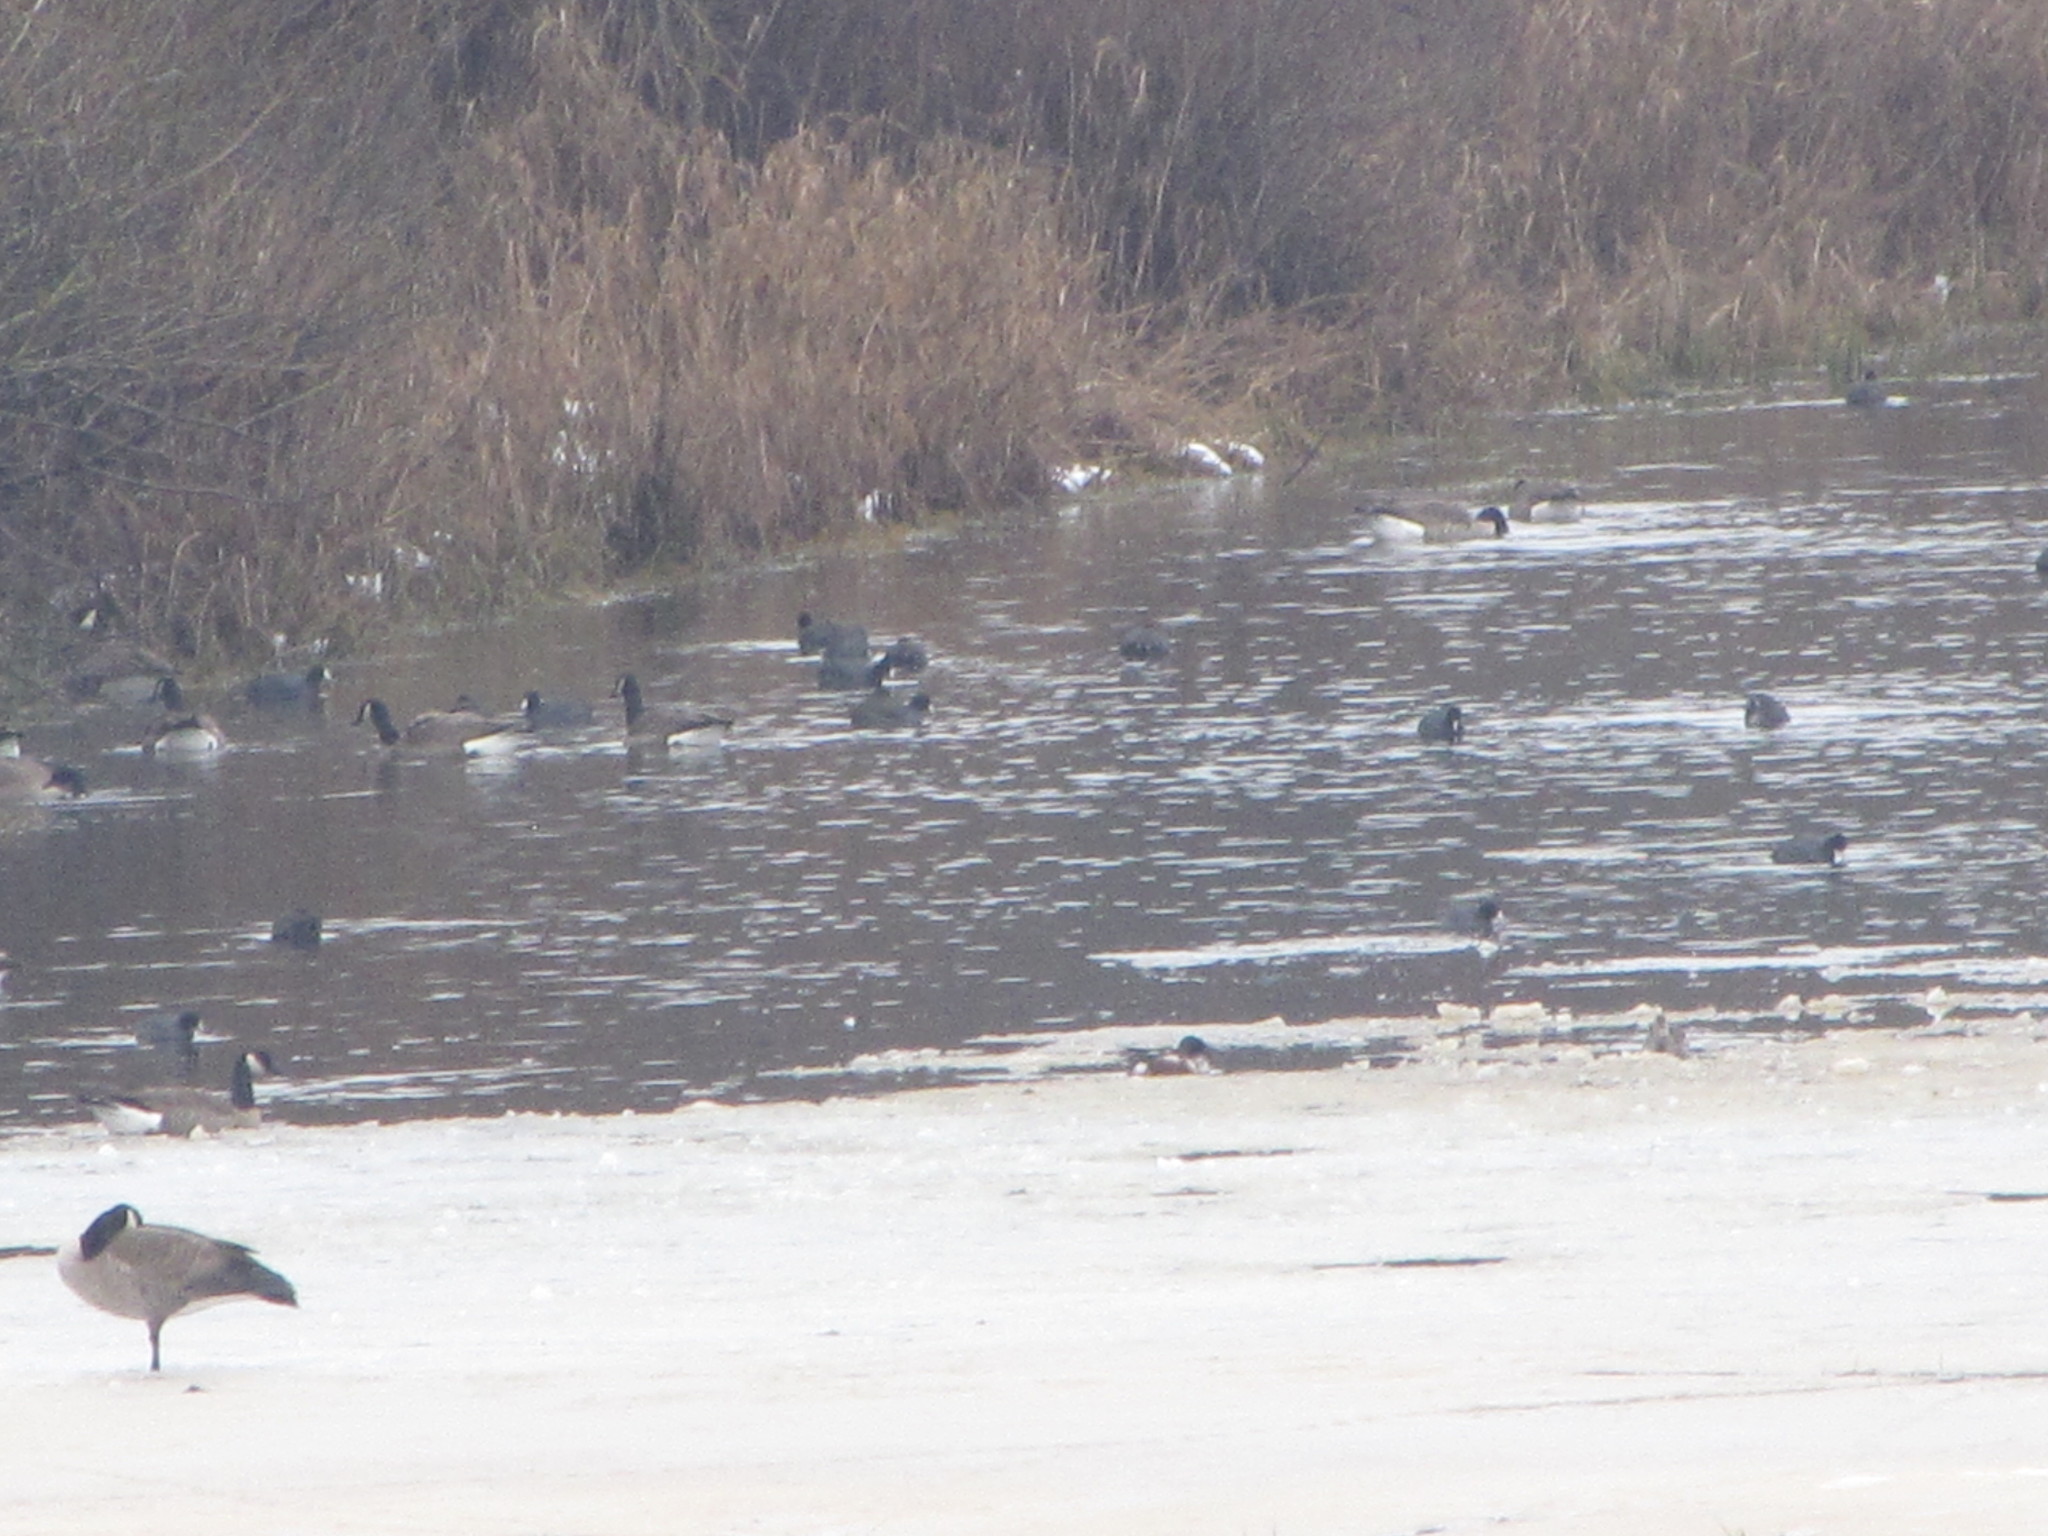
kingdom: Animalia
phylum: Chordata
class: Aves
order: Anseriformes
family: Anatidae
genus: Branta
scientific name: Branta canadensis
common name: Canada goose
